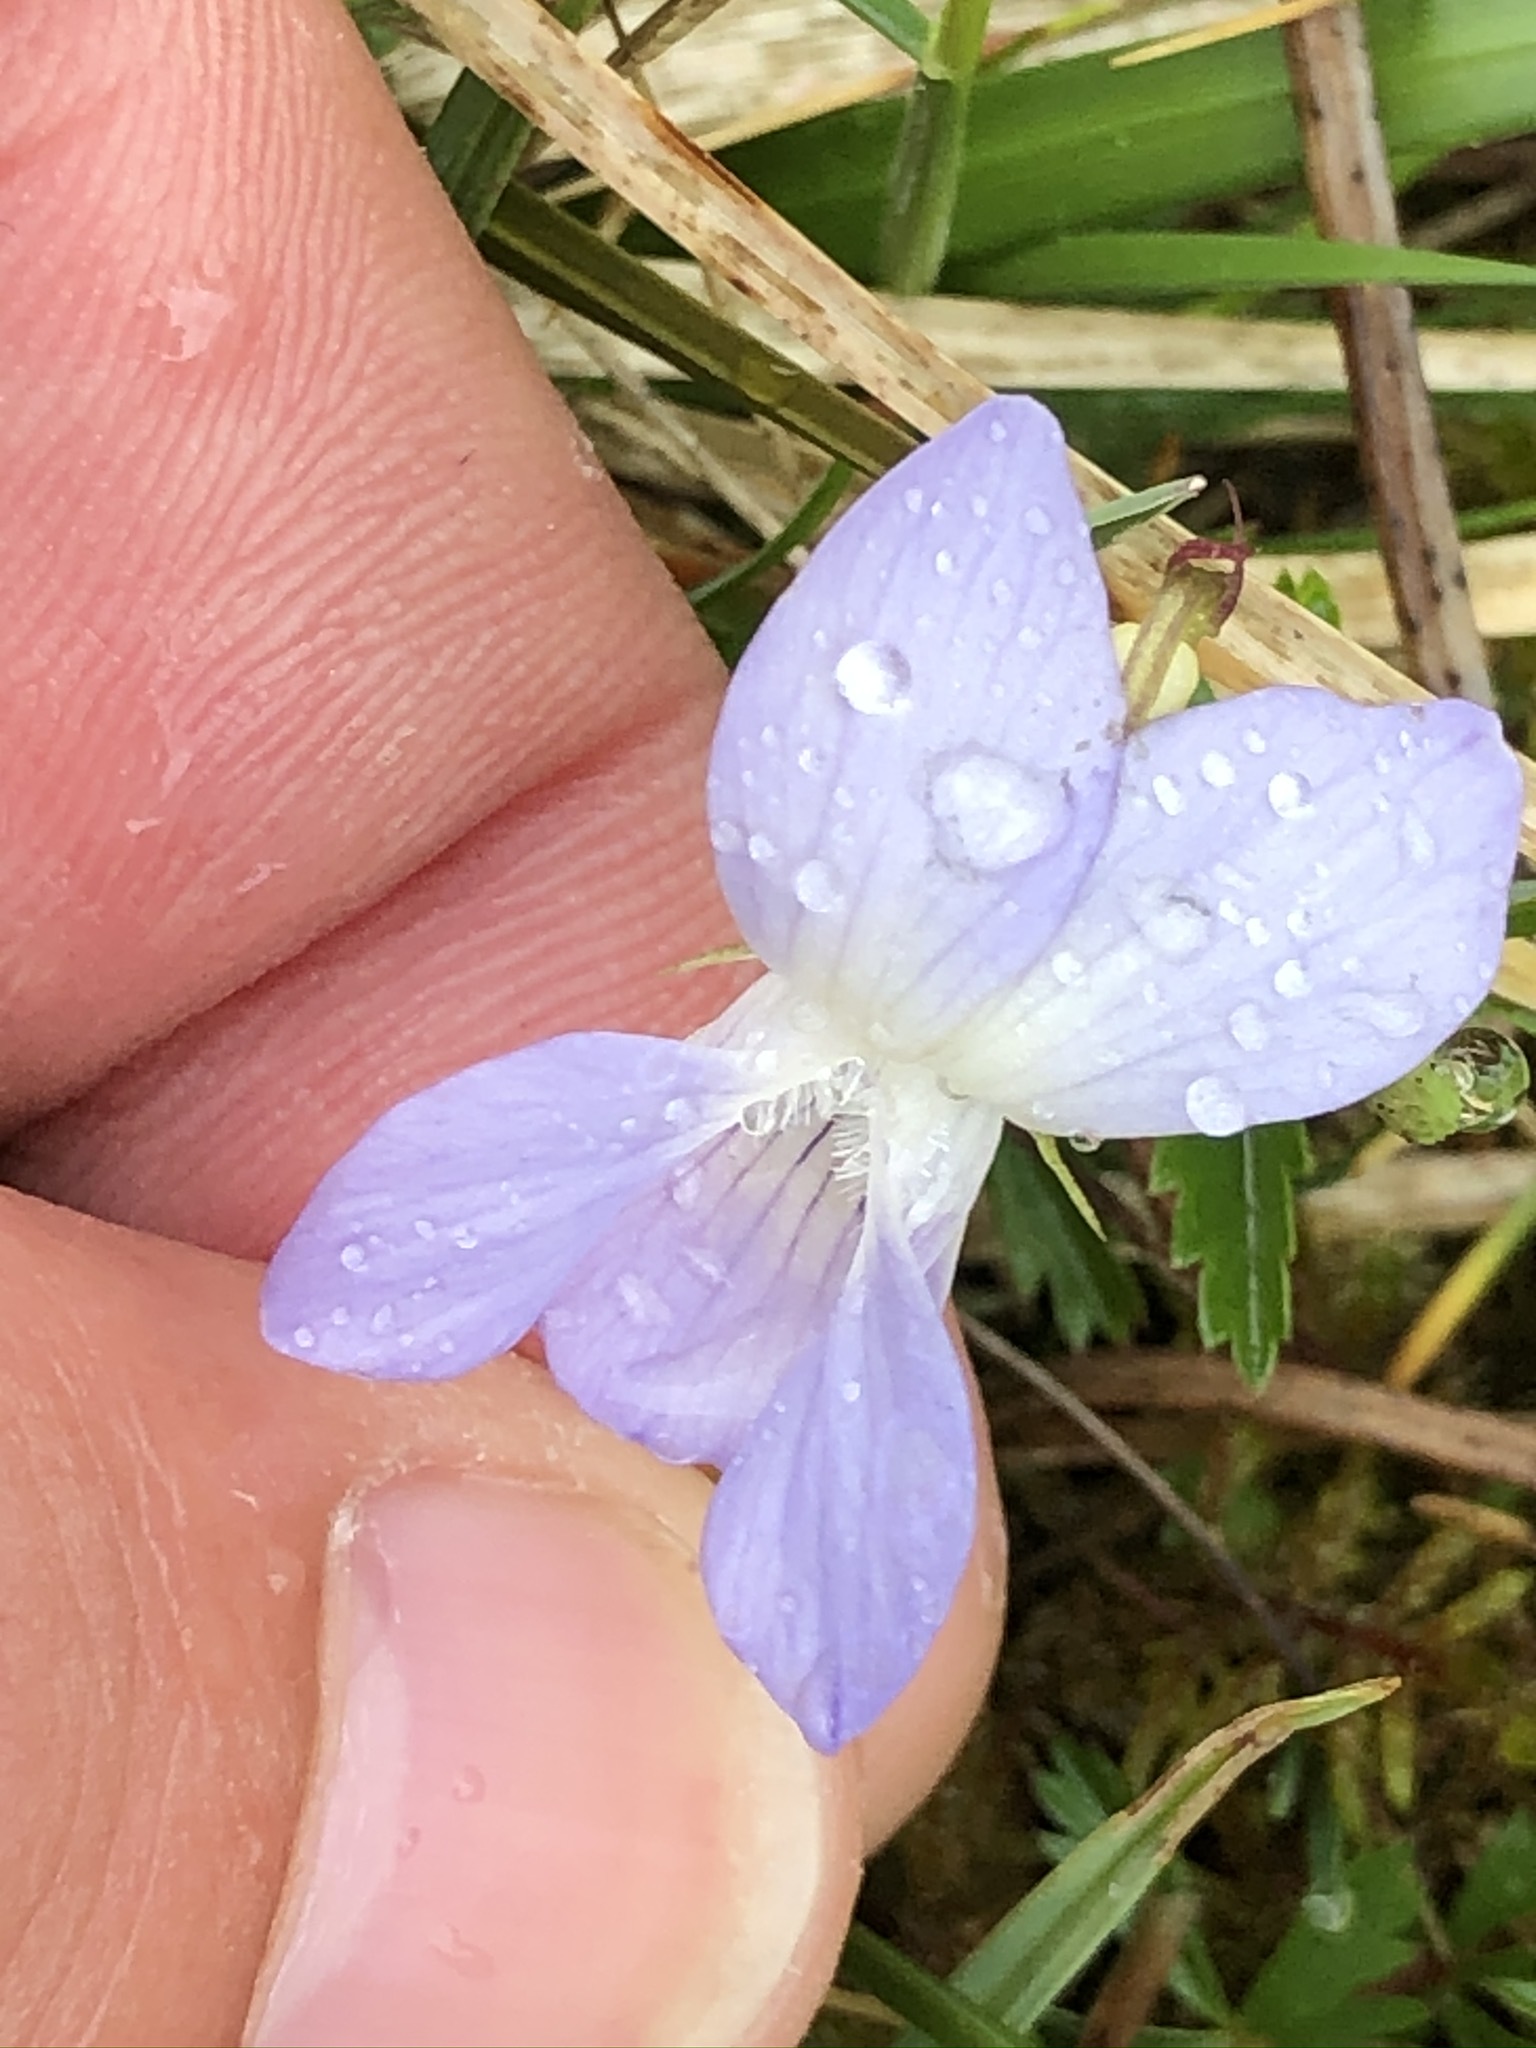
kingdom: Plantae
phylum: Tracheophyta
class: Magnoliopsida
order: Malpighiales
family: Violaceae
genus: Viola
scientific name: Viola riviniana
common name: Common dog-violet
